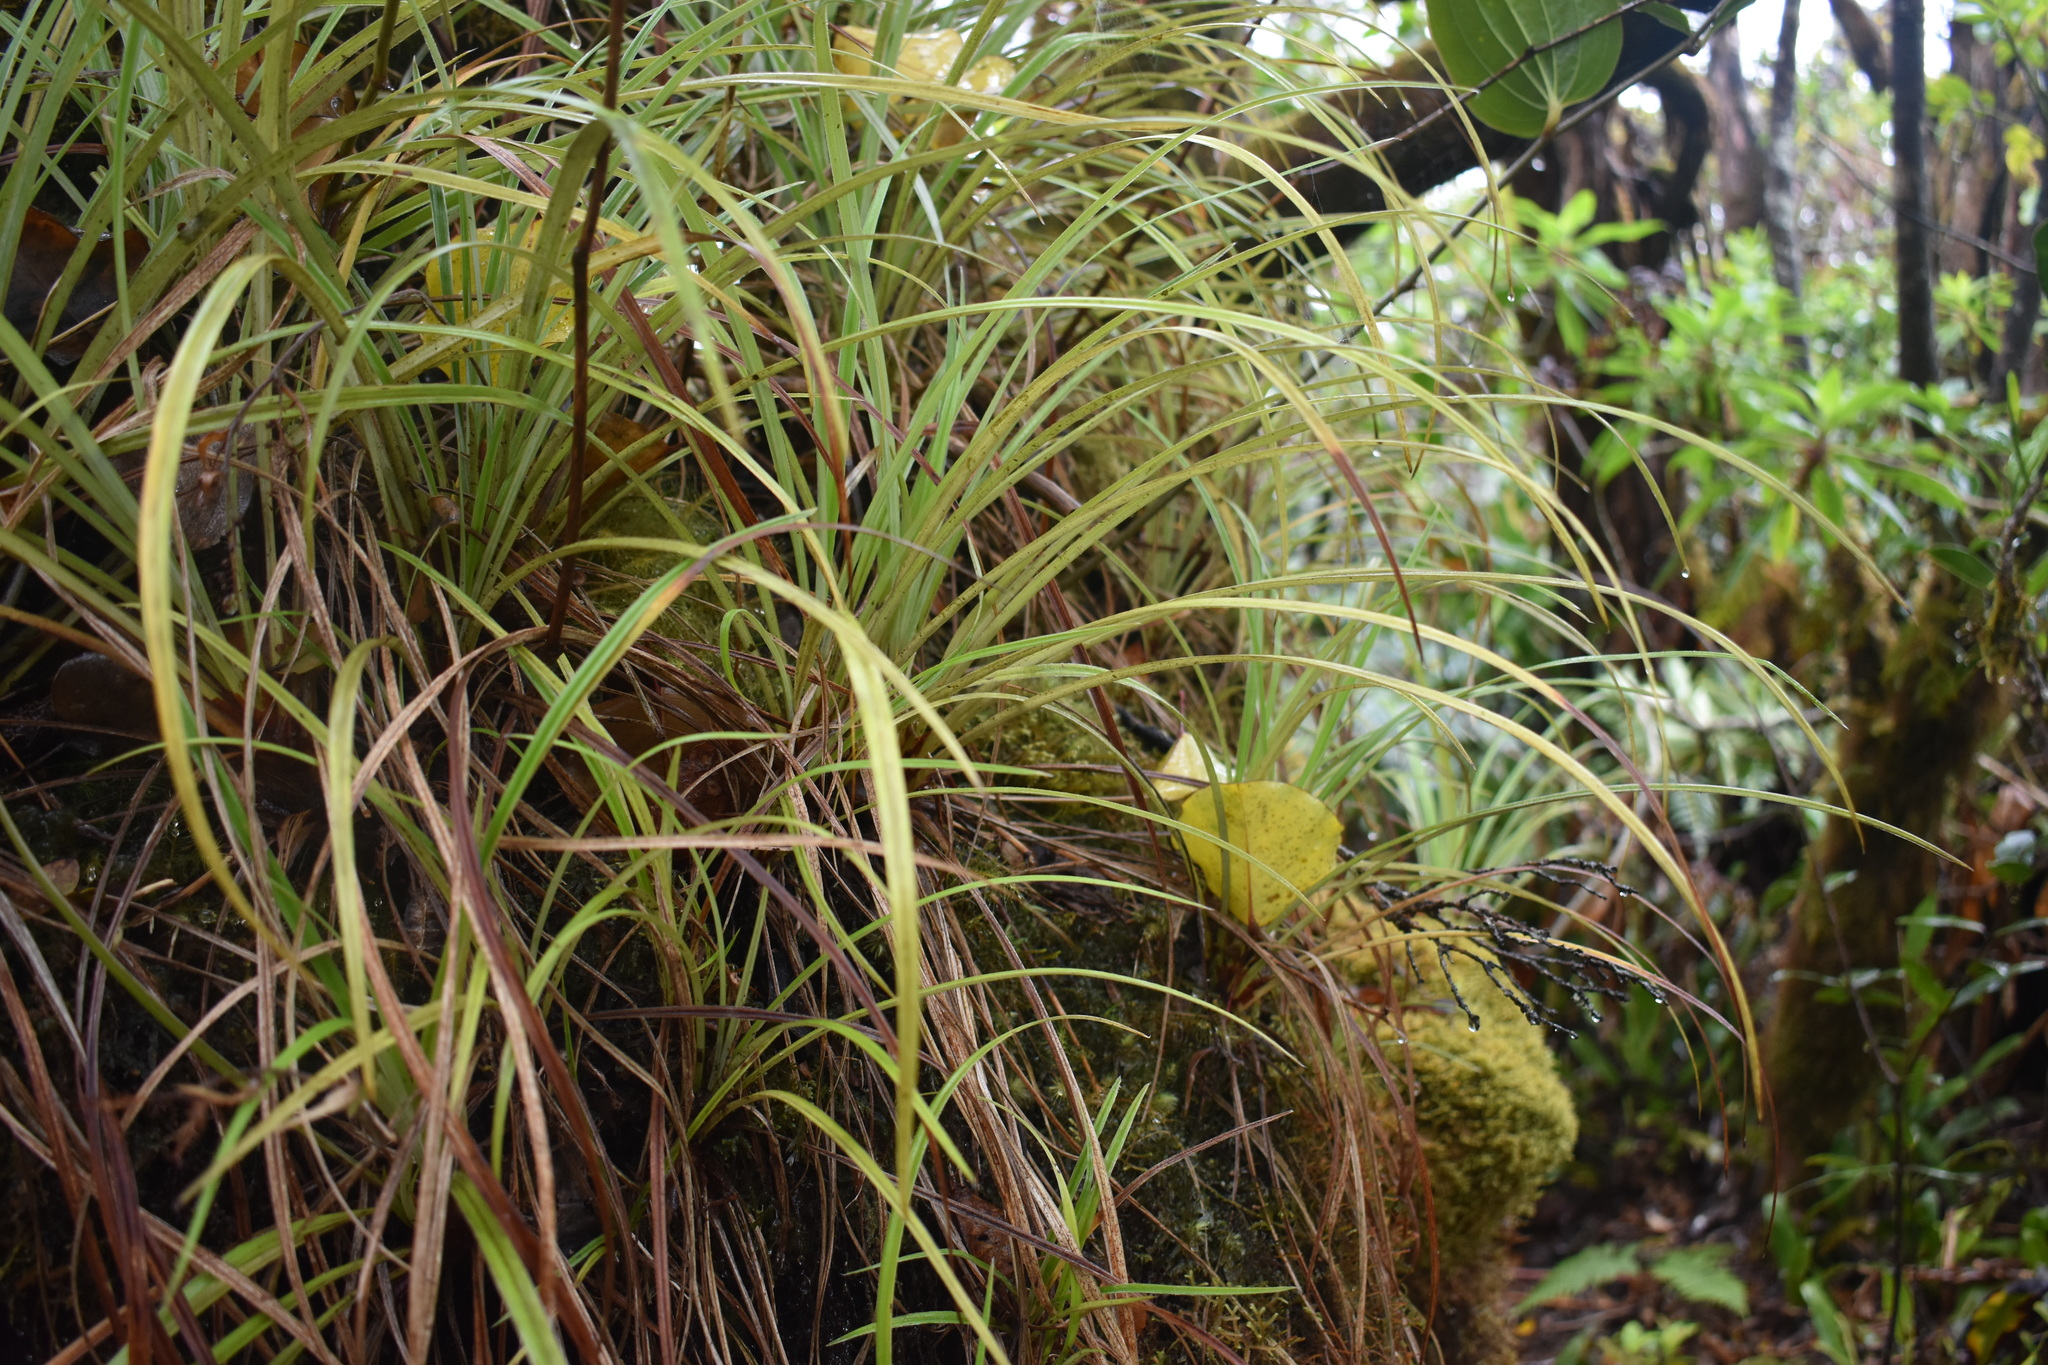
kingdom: Plantae
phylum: Tracheophyta
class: Liliopsida
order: Asparagales
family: Asteliaceae
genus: Astelia
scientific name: Astelia argyrocoma
